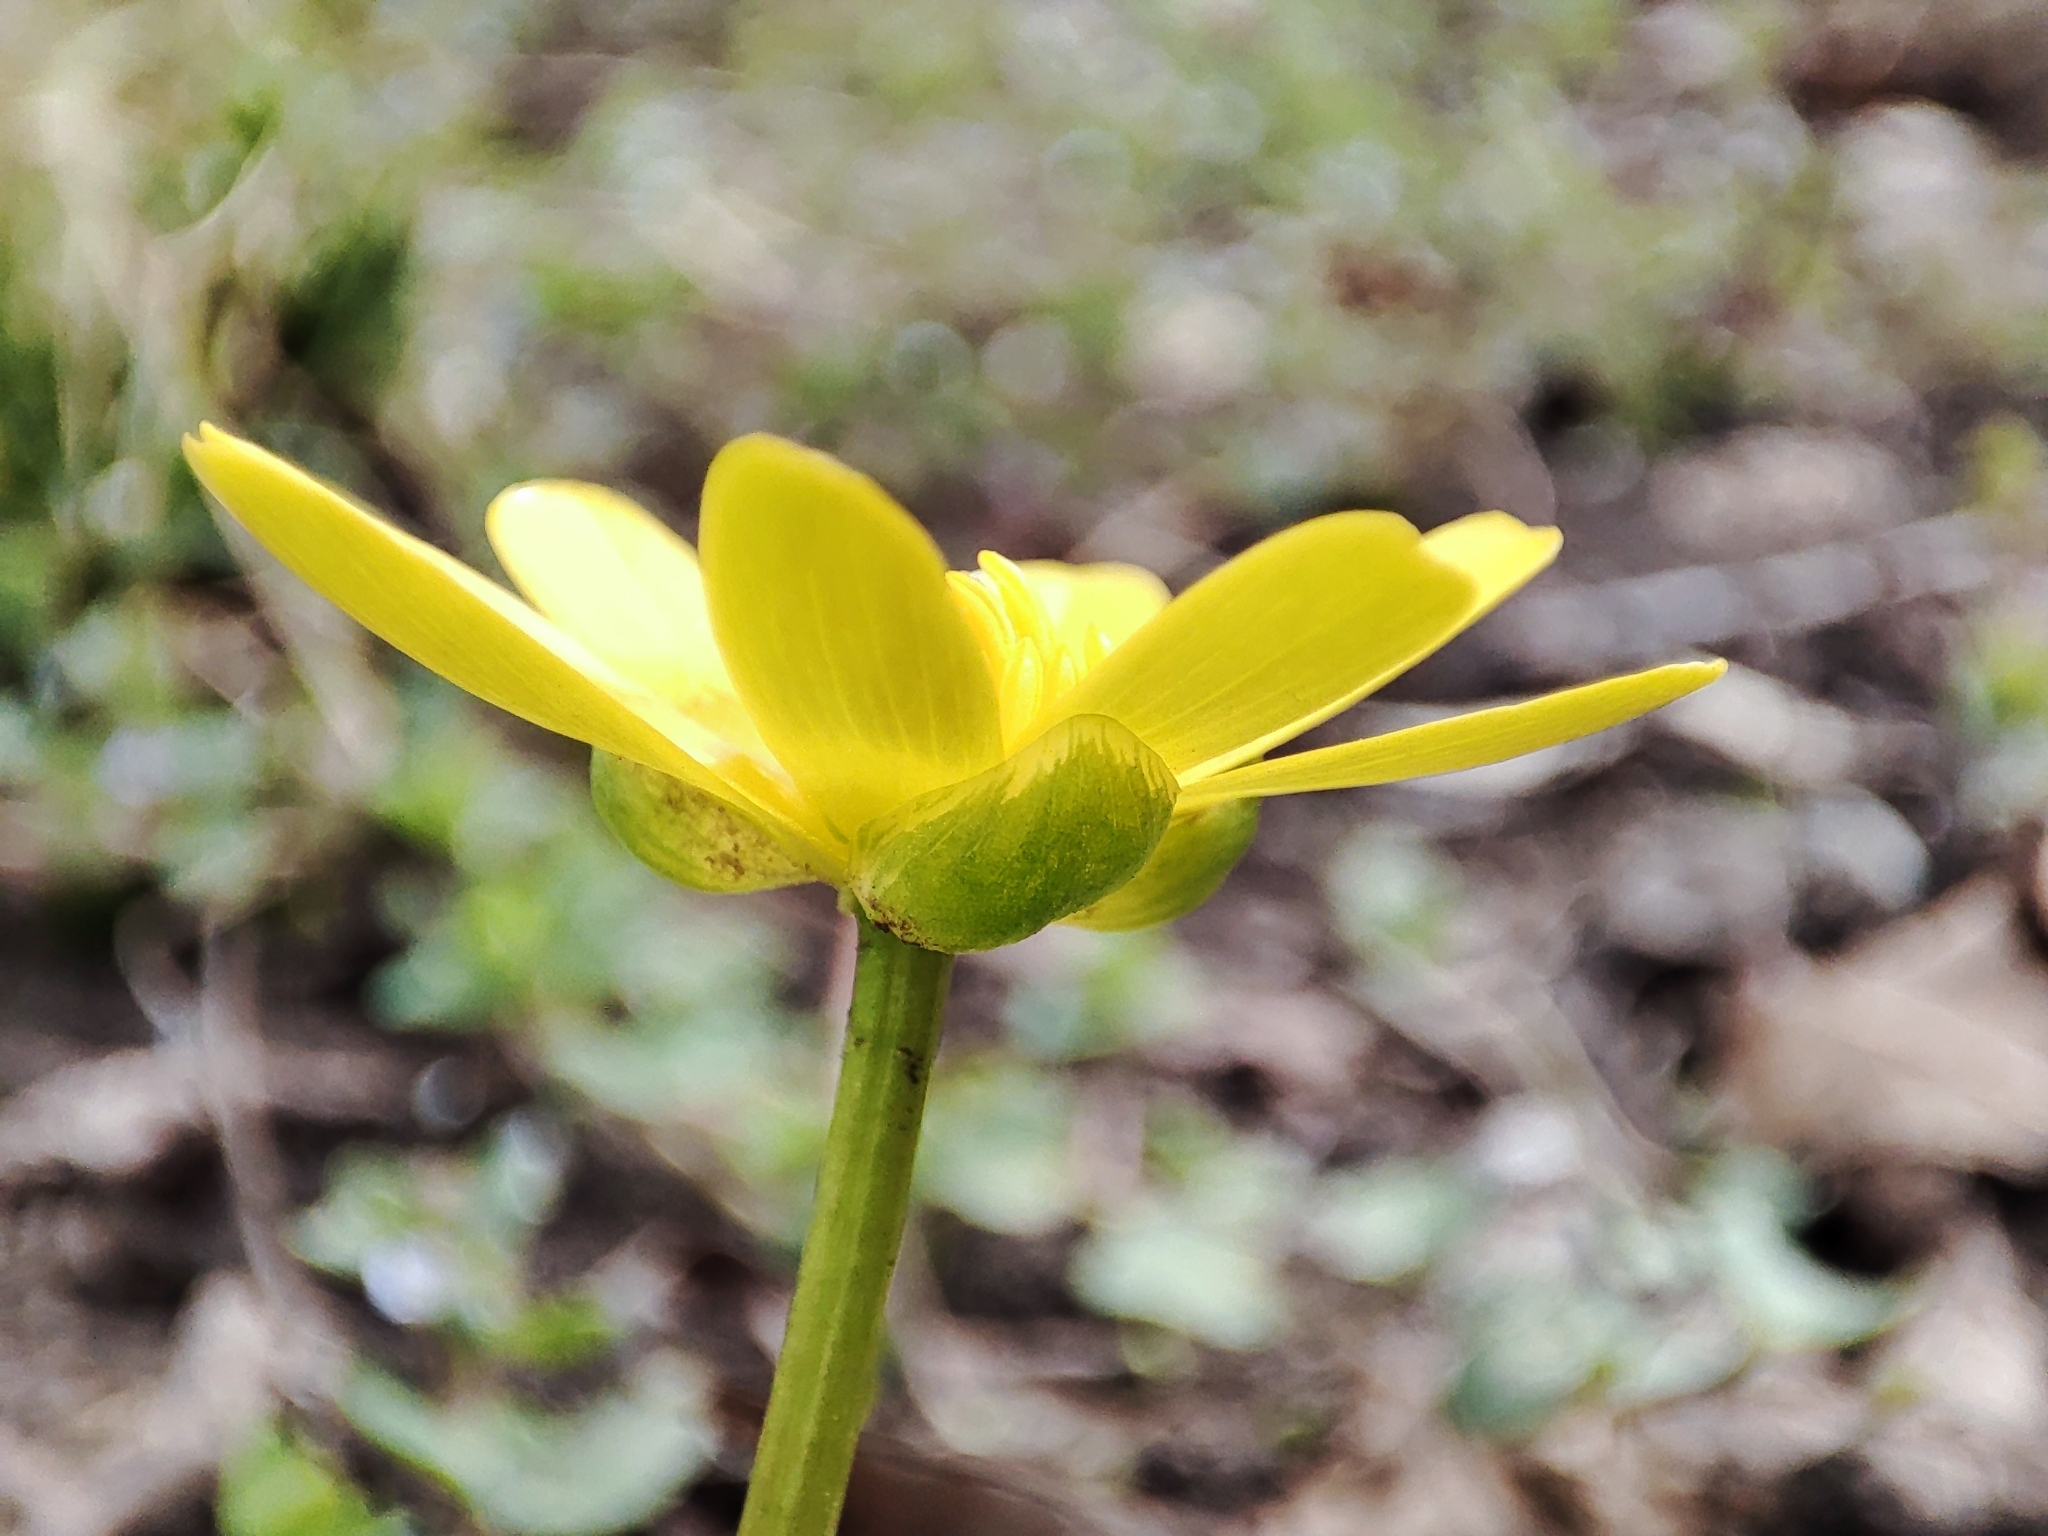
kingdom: Plantae
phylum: Tracheophyta
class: Magnoliopsida
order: Ranunculales
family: Ranunculaceae
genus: Ficaria
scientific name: Ficaria verna
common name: Lesser celandine
